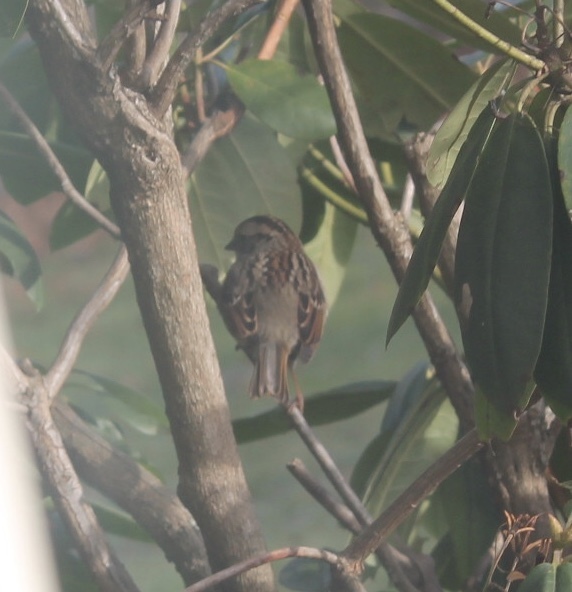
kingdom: Animalia
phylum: Chordata
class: Aves
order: Passeriformes
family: Passerellidae
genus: Zonotrichia
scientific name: Zonotrichia albicollis
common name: White-throated sparrow
